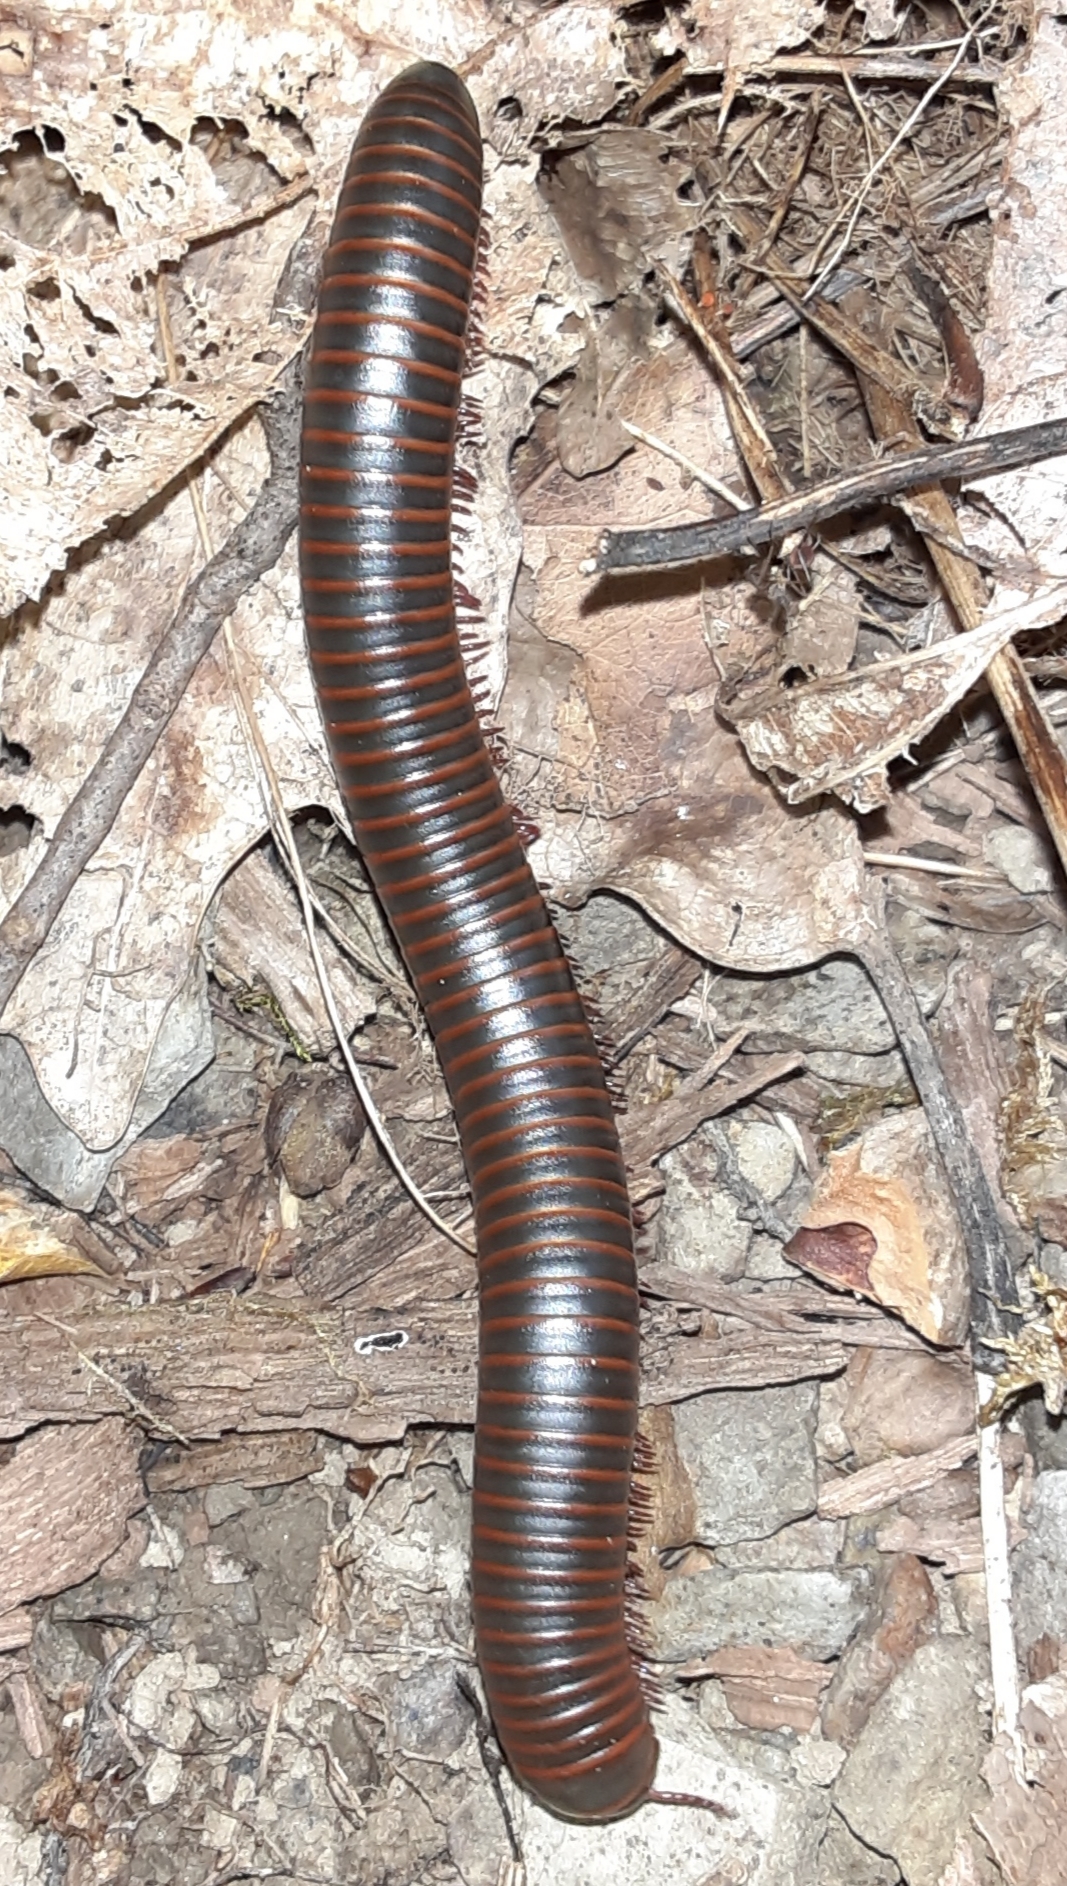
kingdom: Animalia
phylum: Arthropoda
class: Diplopoda
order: Spirobolida
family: Spirobolidae
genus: Narceus
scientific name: Narceus
